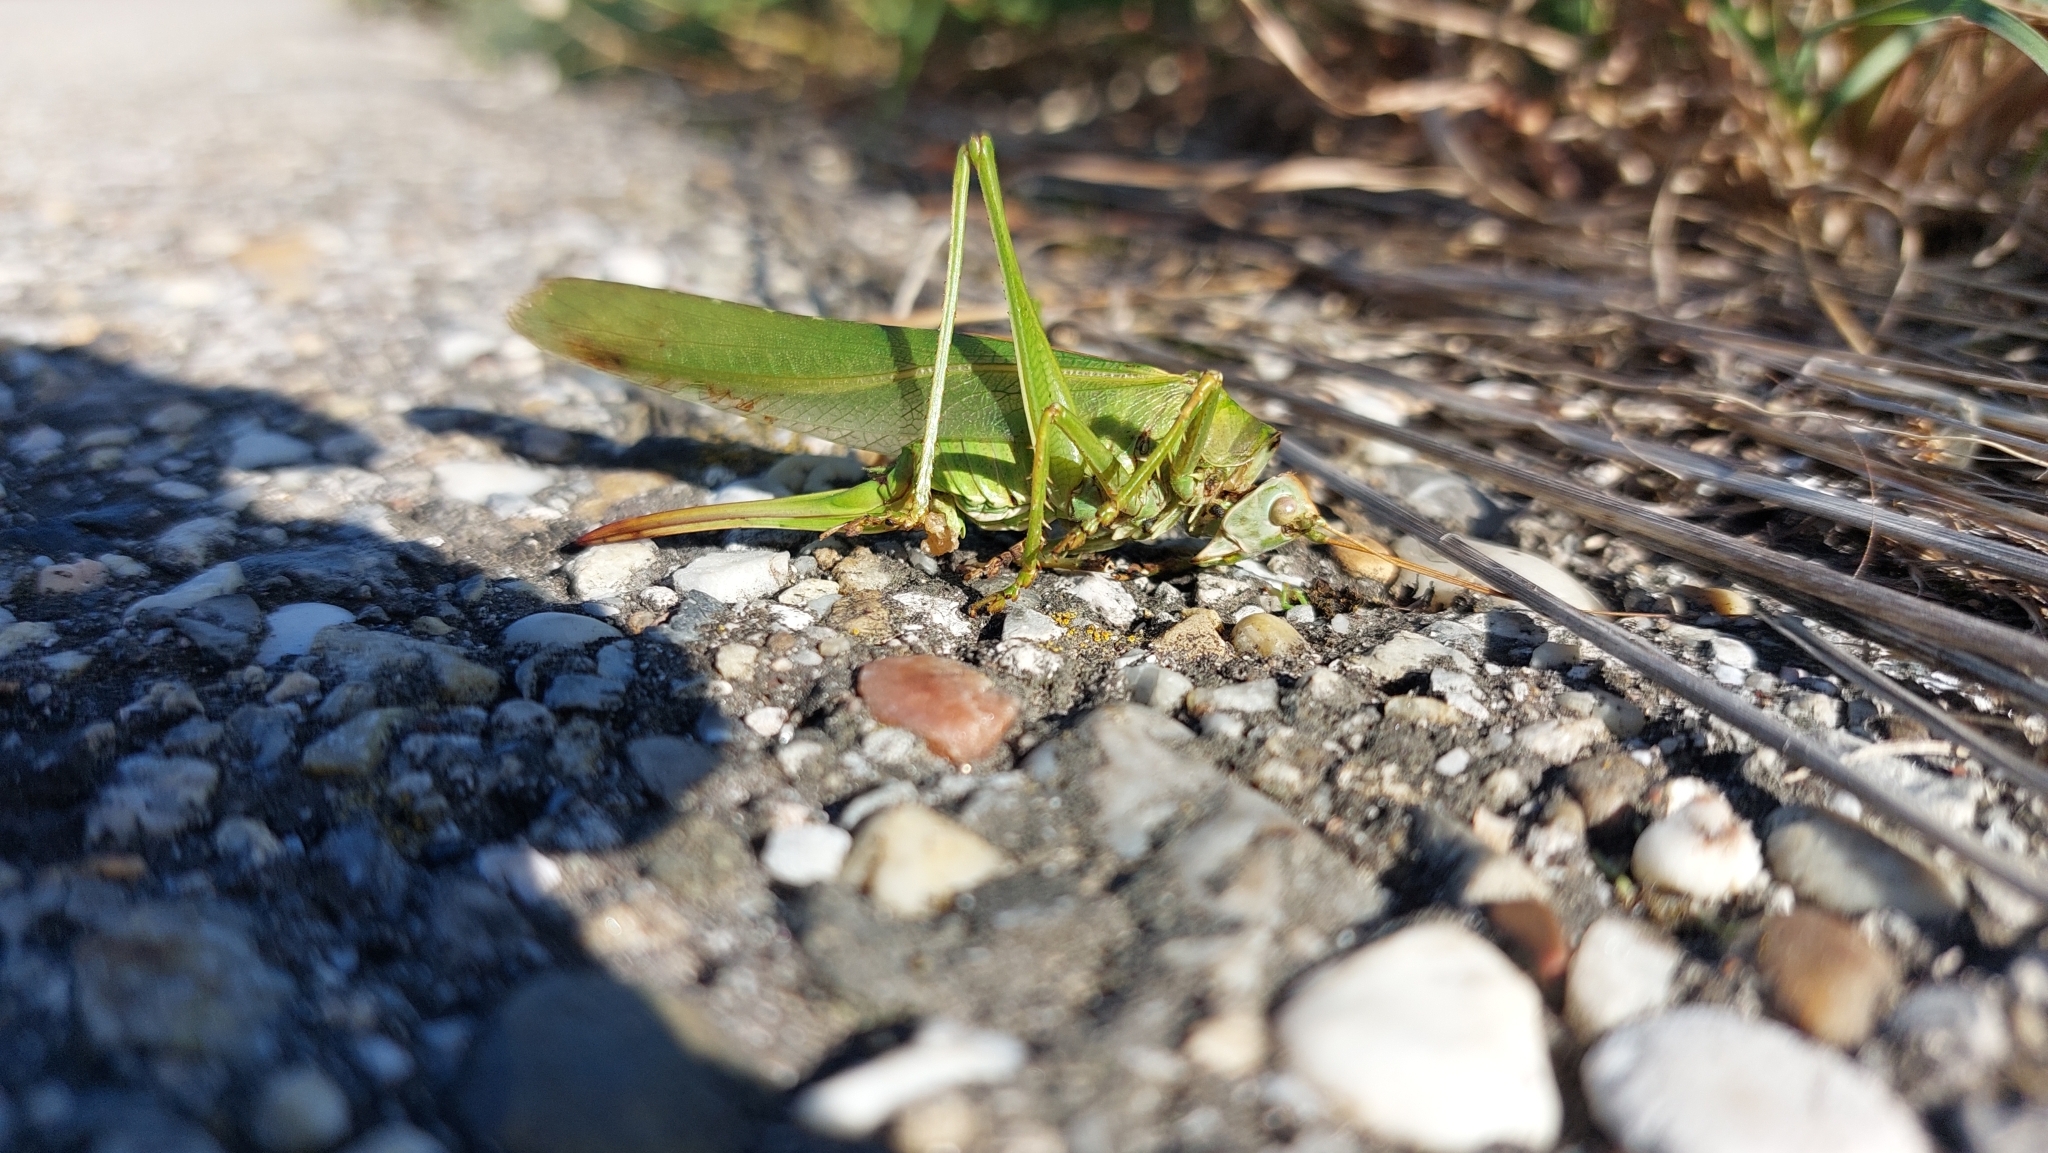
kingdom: Animalia
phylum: Arthropoda
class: Insecta
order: Orthoptera
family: Tettigoniidae
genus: Tettigonia
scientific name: Tettigonia viridissima
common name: Great green bush-cricket
